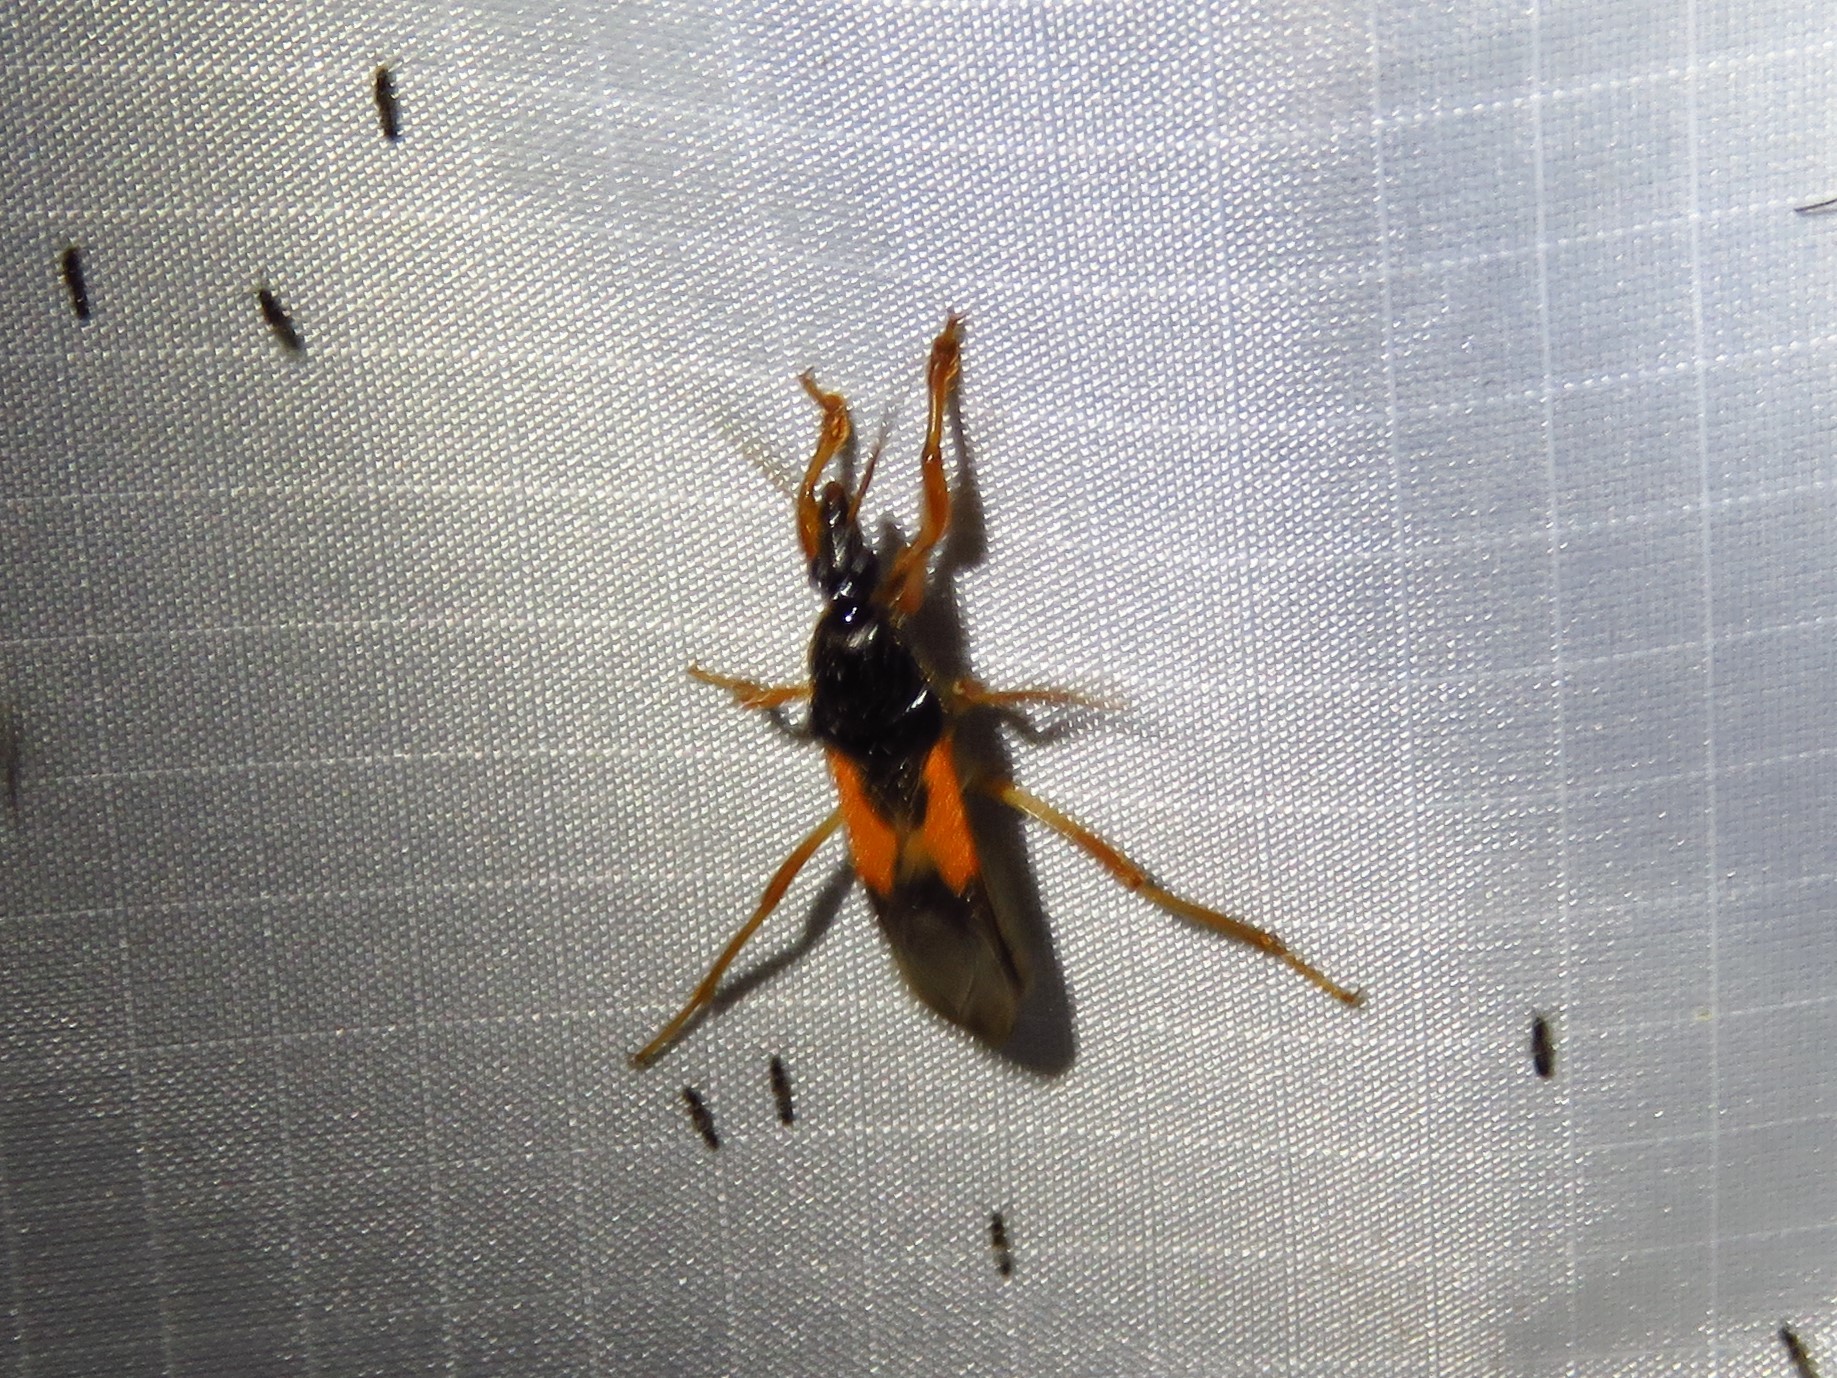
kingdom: Animalia
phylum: Arthropoda
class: Insecta
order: Hemiptera
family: Reduviidae
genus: Sirthenea
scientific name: Sirthenea stria
